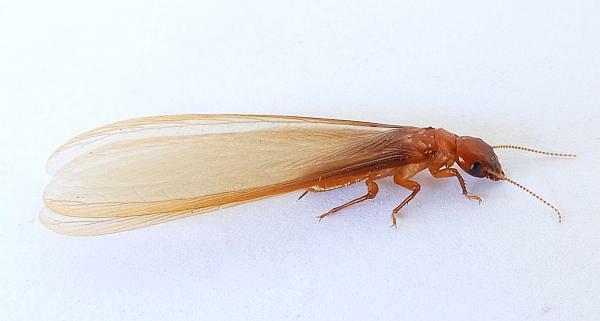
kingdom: Animalia
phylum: Arthropoda
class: Insecta
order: Blattodea
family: Archotermopsidae
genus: Zootermopsis
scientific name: Zootermopsis laticeps
